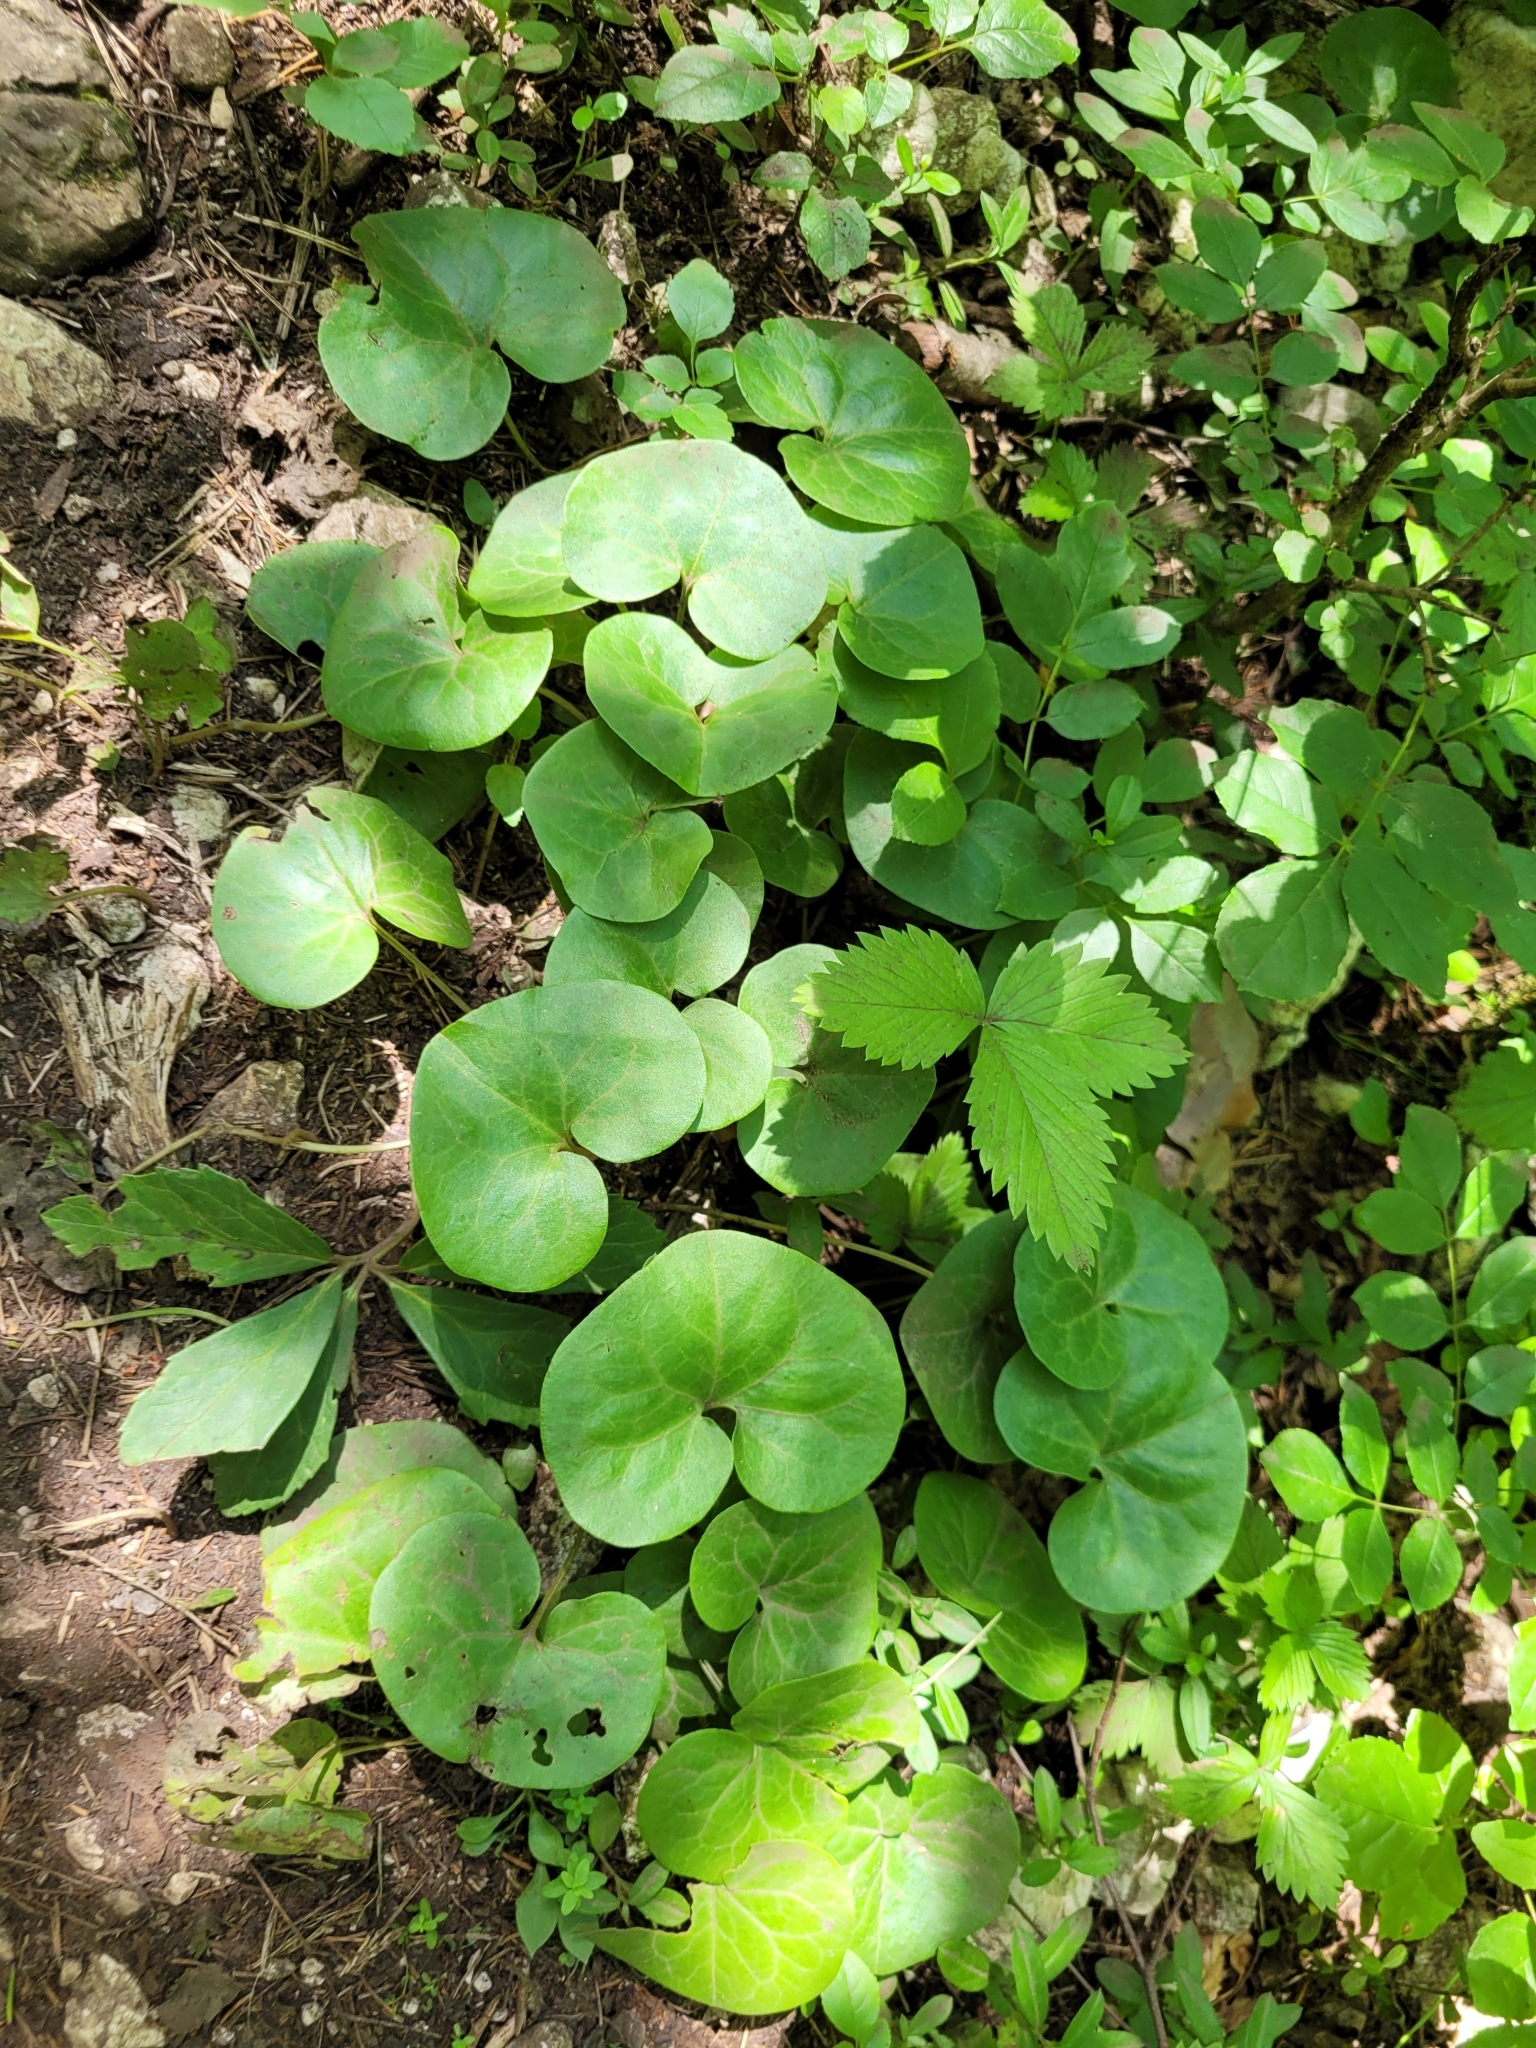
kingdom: Plantae
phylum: Tracheophyta
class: Magnoliopsida
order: Piperales
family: Aristolochiaceae
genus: Asarum
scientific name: Asarum europaeum
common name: Asarabacca
